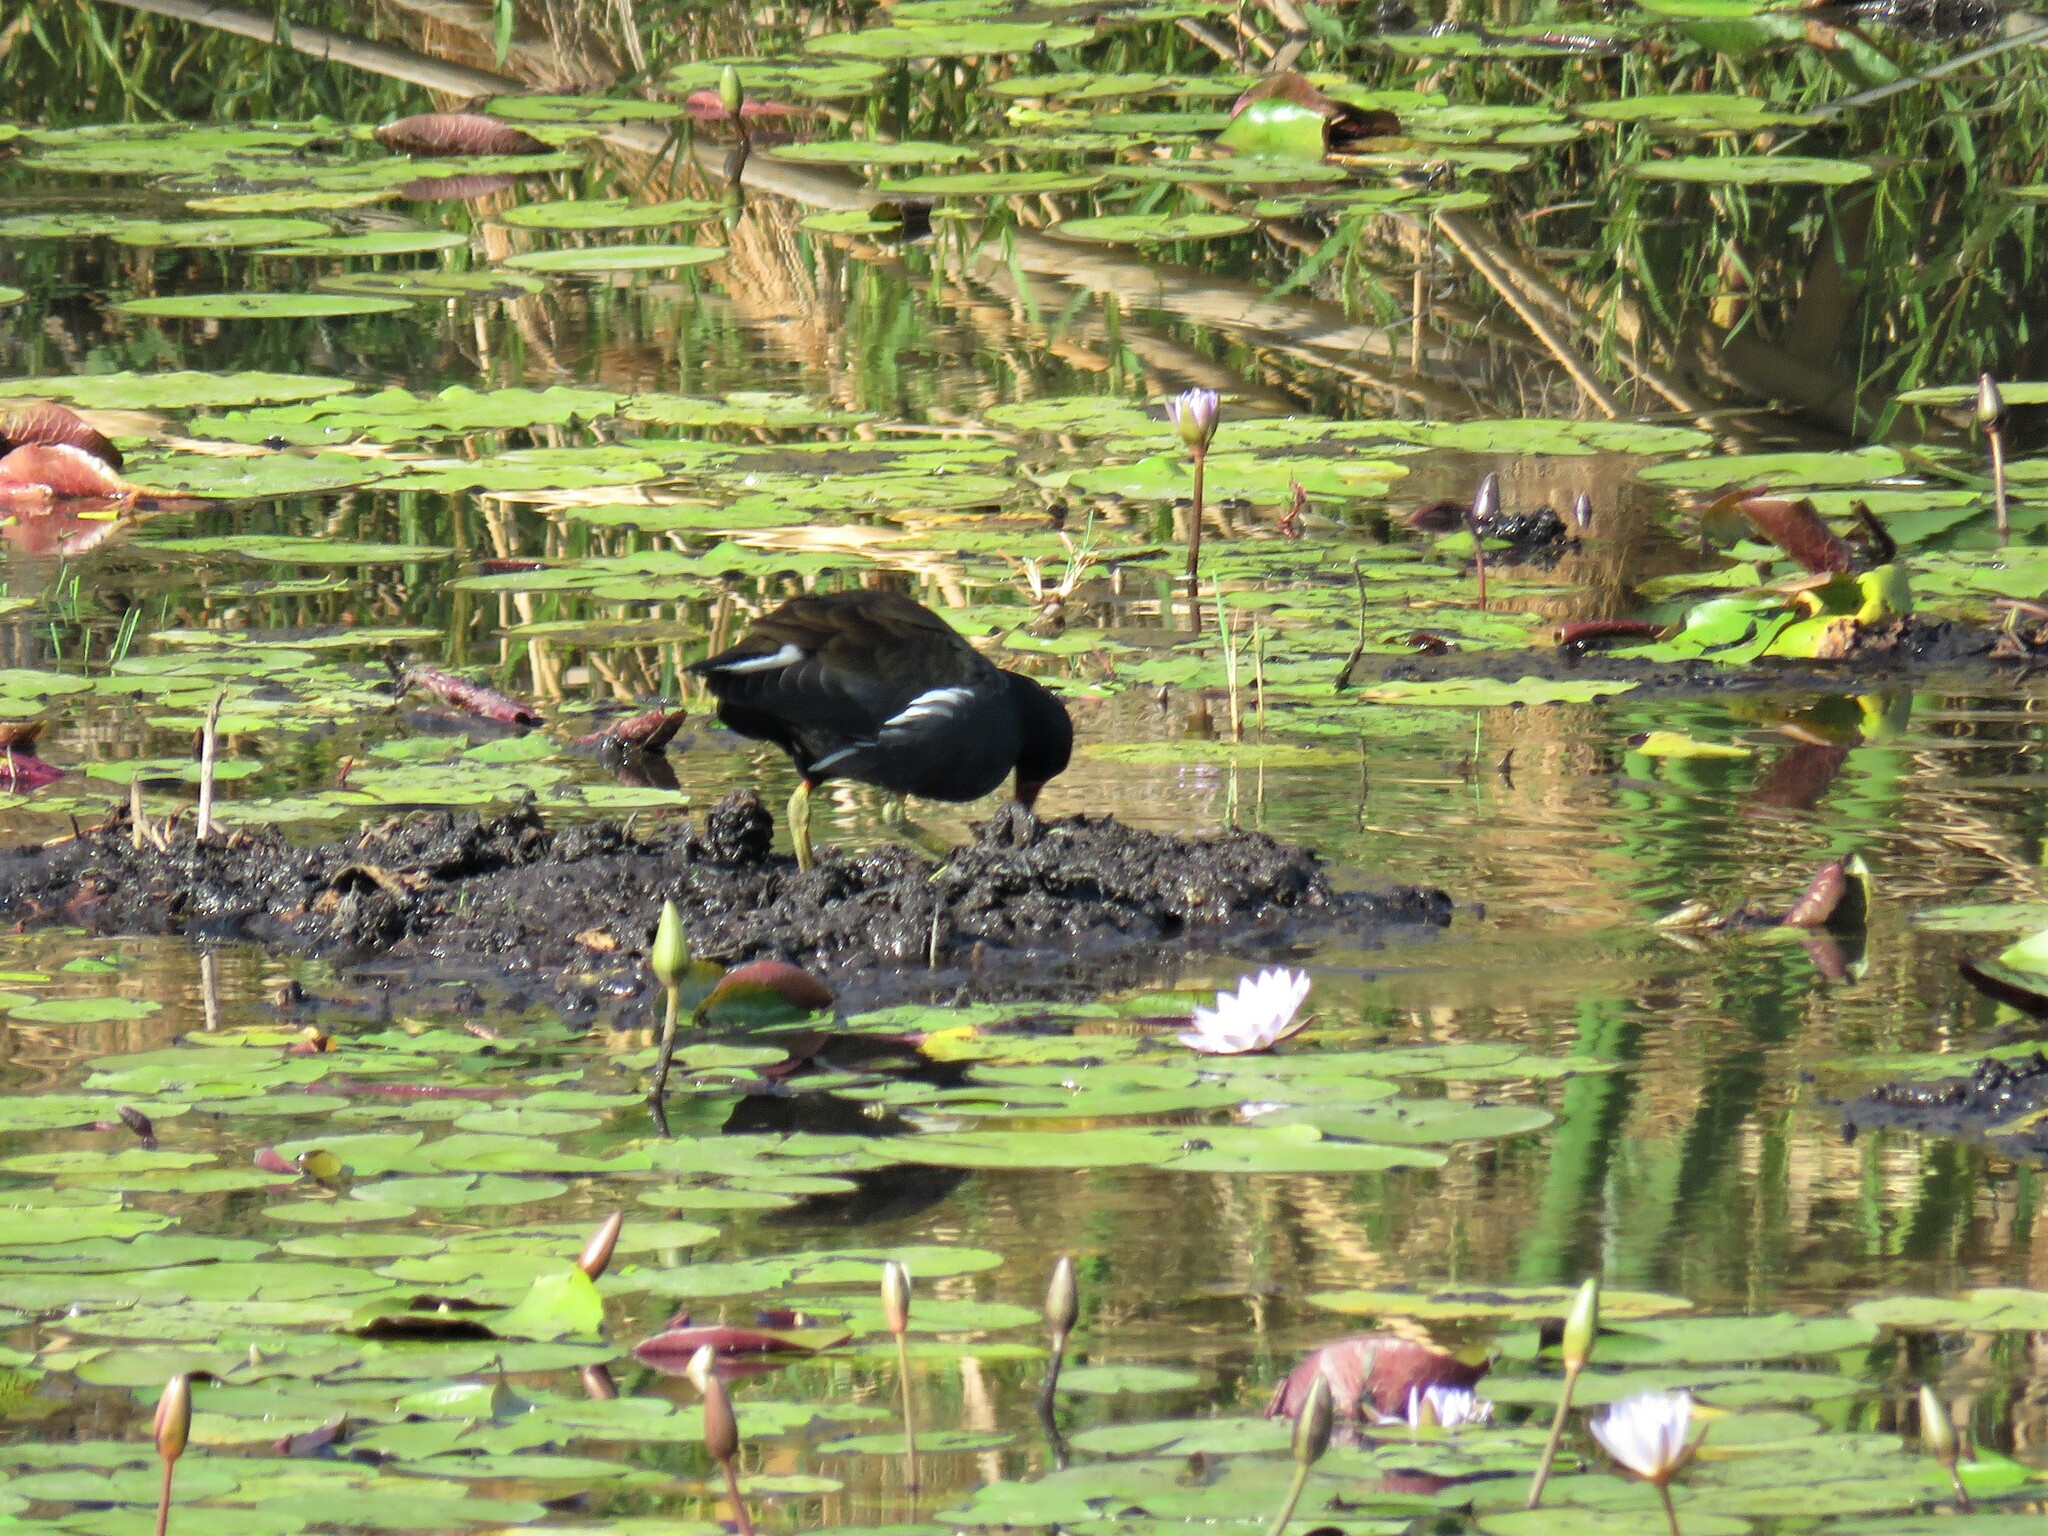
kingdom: Animalia
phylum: Chordata
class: Aves
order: Gruiformes
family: Rallidae
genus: Gallinula
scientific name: Gallinula chloropus
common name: Common moorhen
